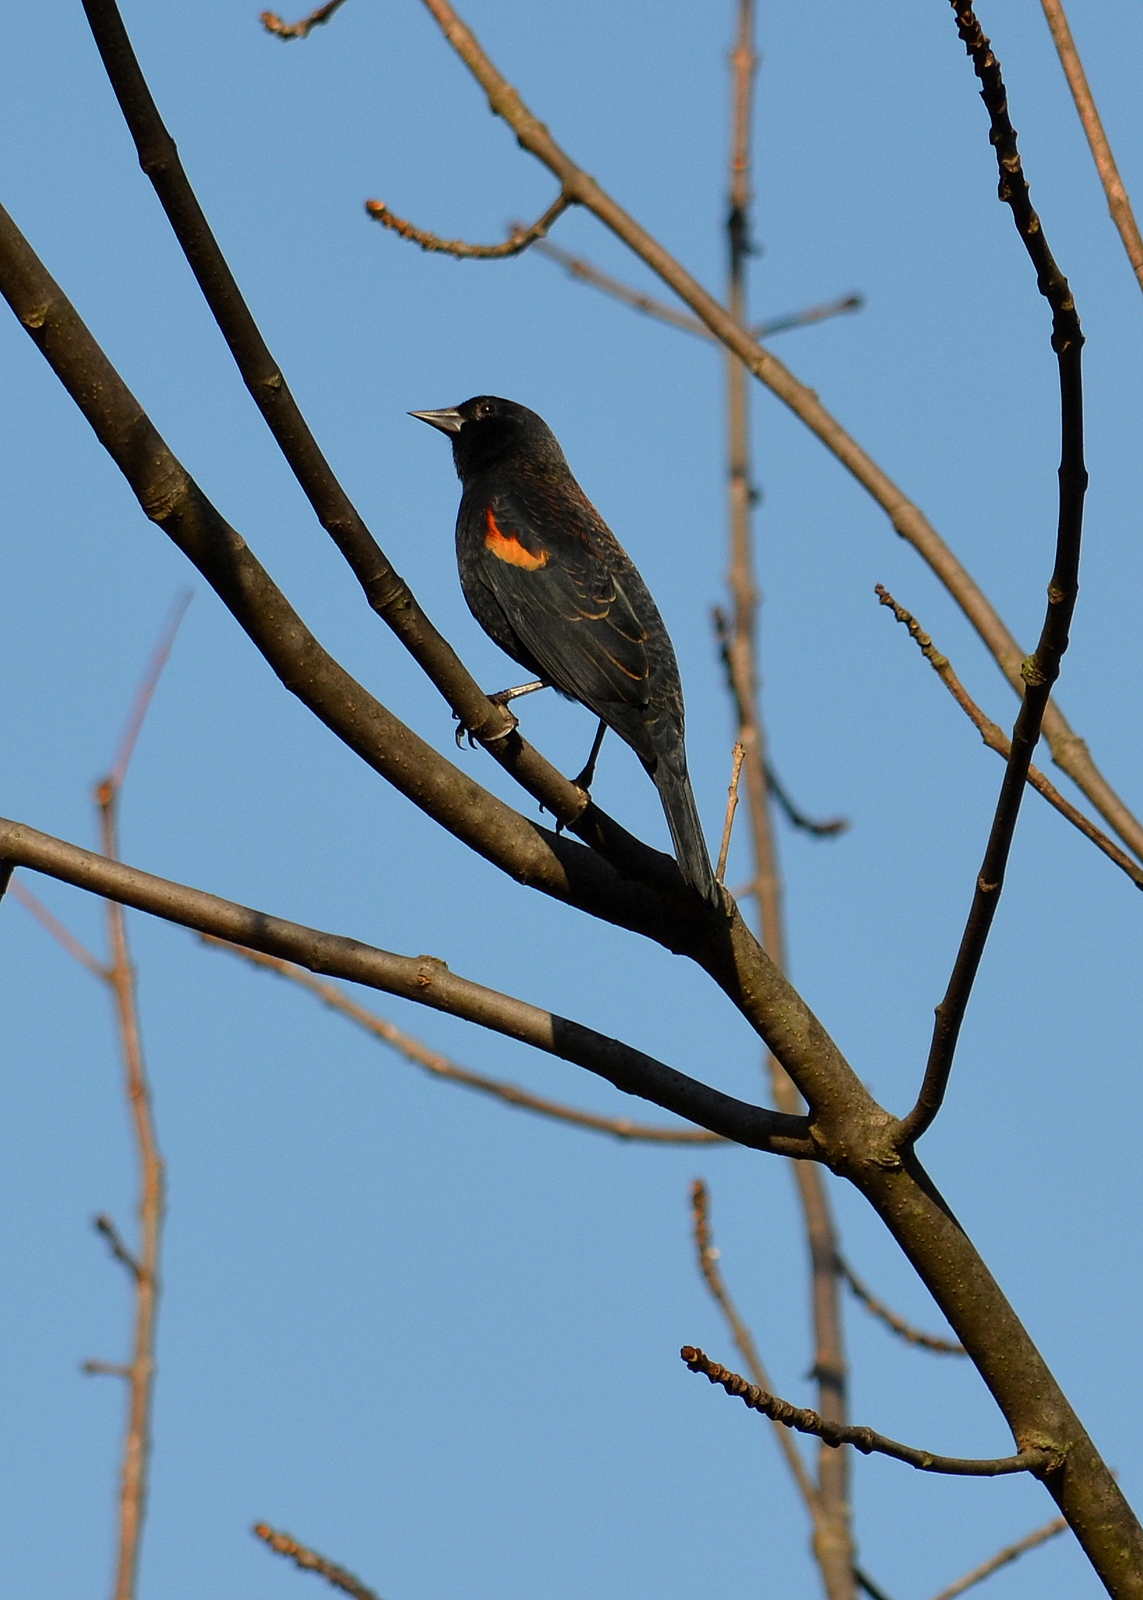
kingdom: Animalia
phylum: Chordata
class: Aves
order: Passeriformes
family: Icteridae
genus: Agelaius
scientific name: Agelaius phoeniceus
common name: Red-winged blackbird
